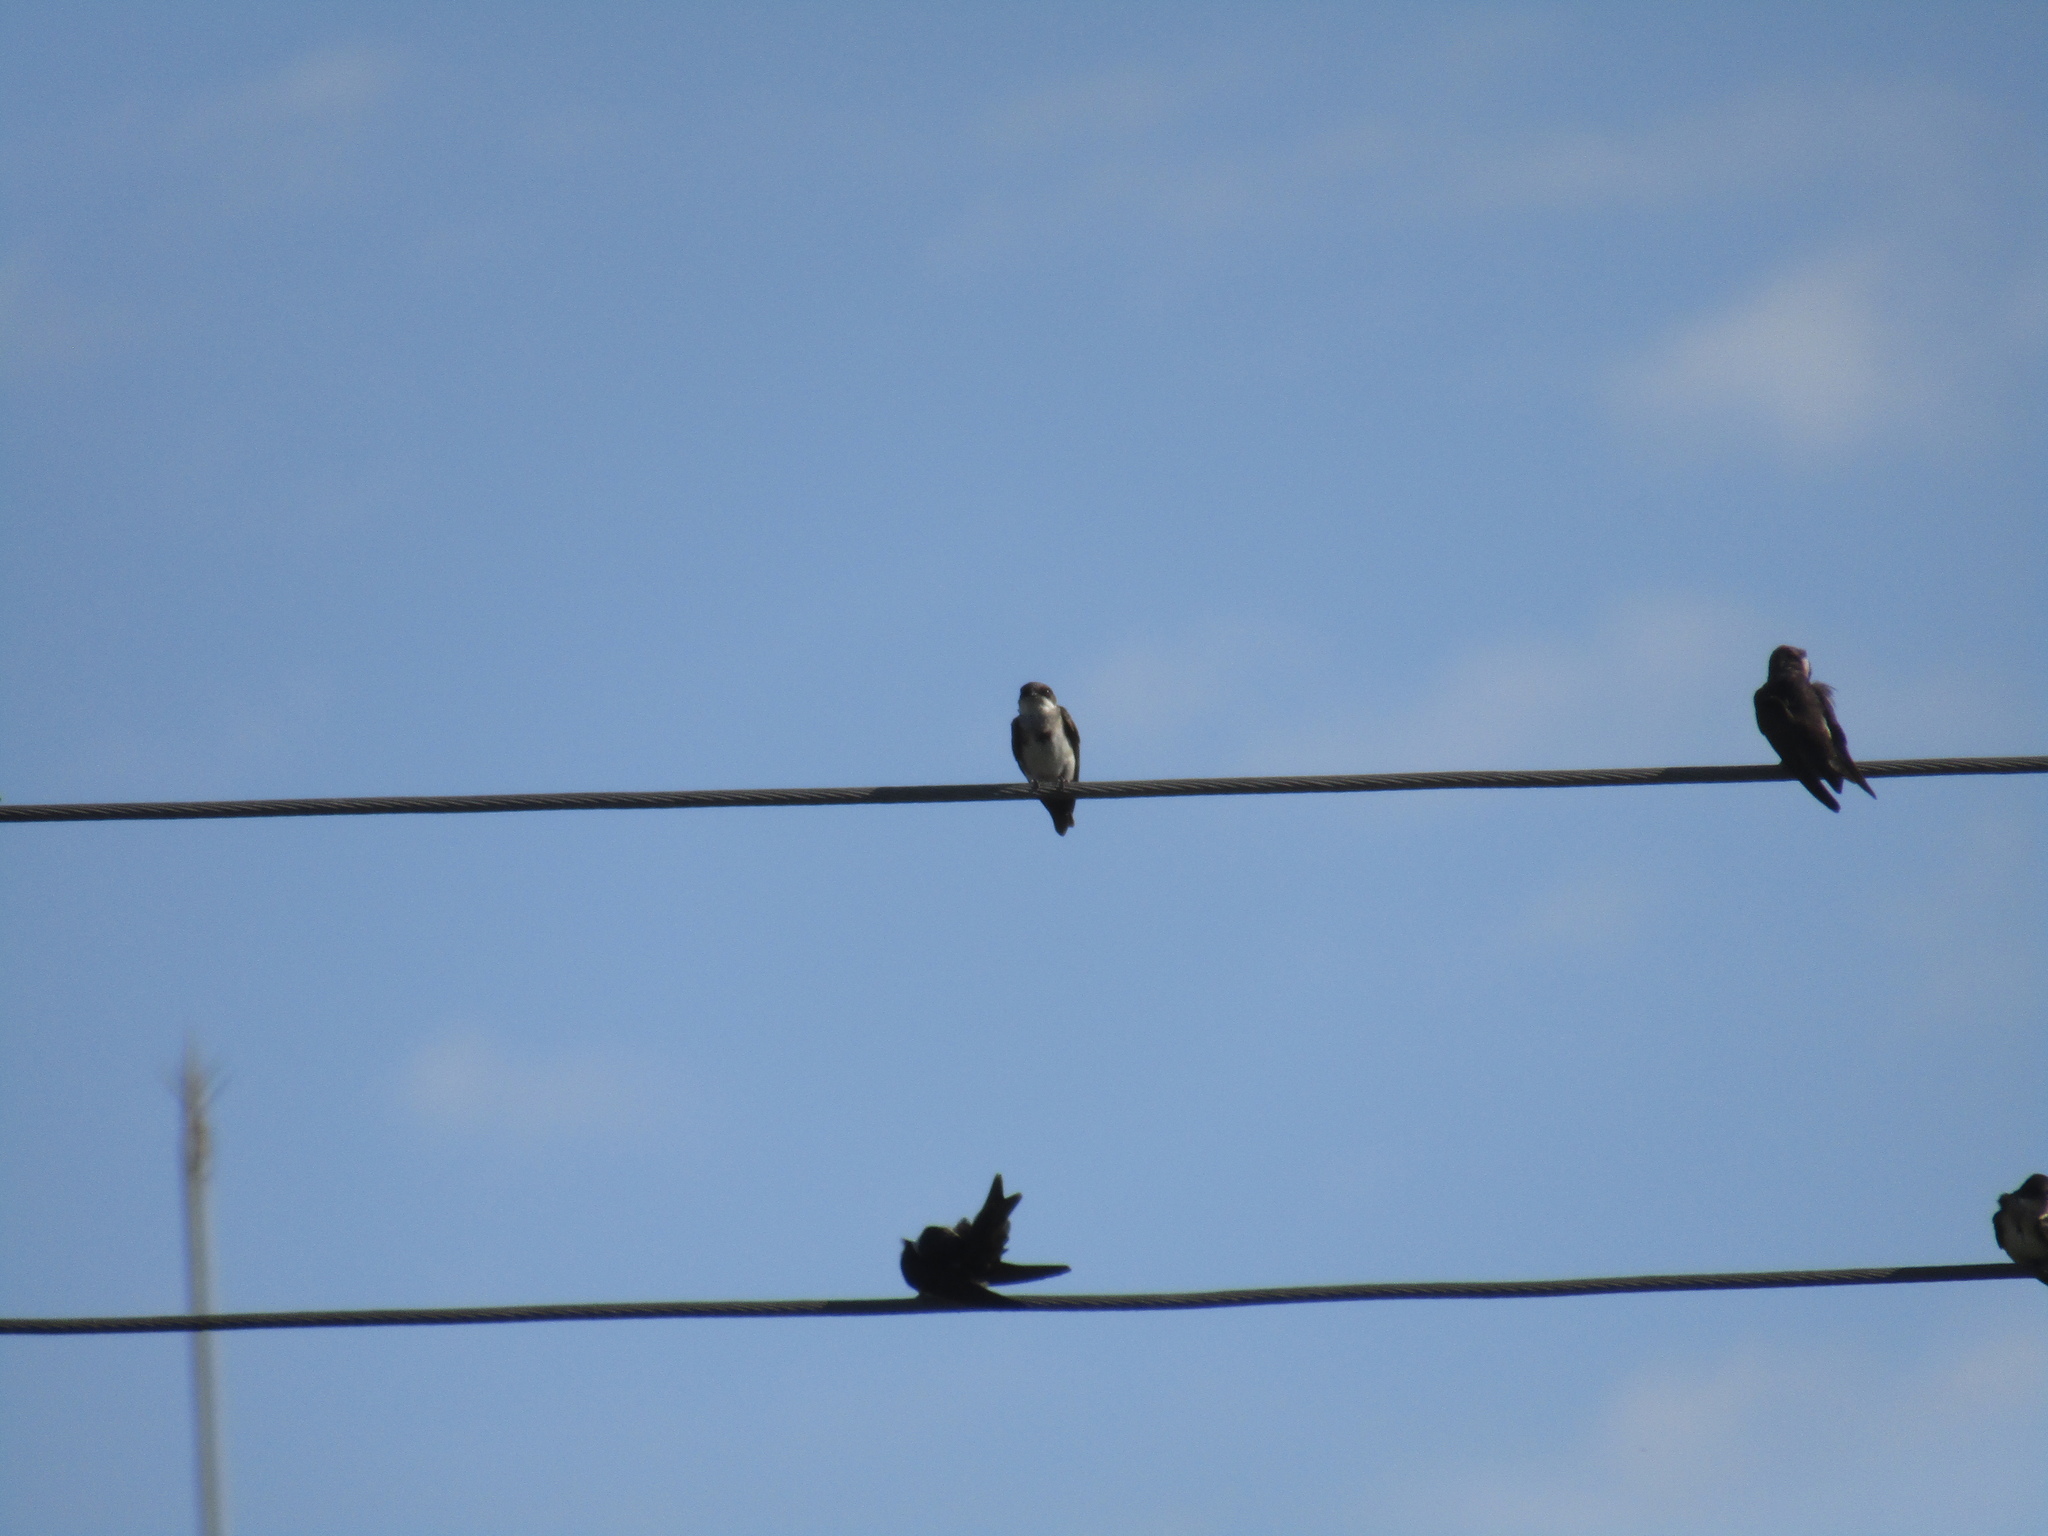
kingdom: Animalia
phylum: Chordata
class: Aves
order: Passeriformes
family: Hirundinidae
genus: Progne
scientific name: Progne tapera
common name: Brown-chested martin
